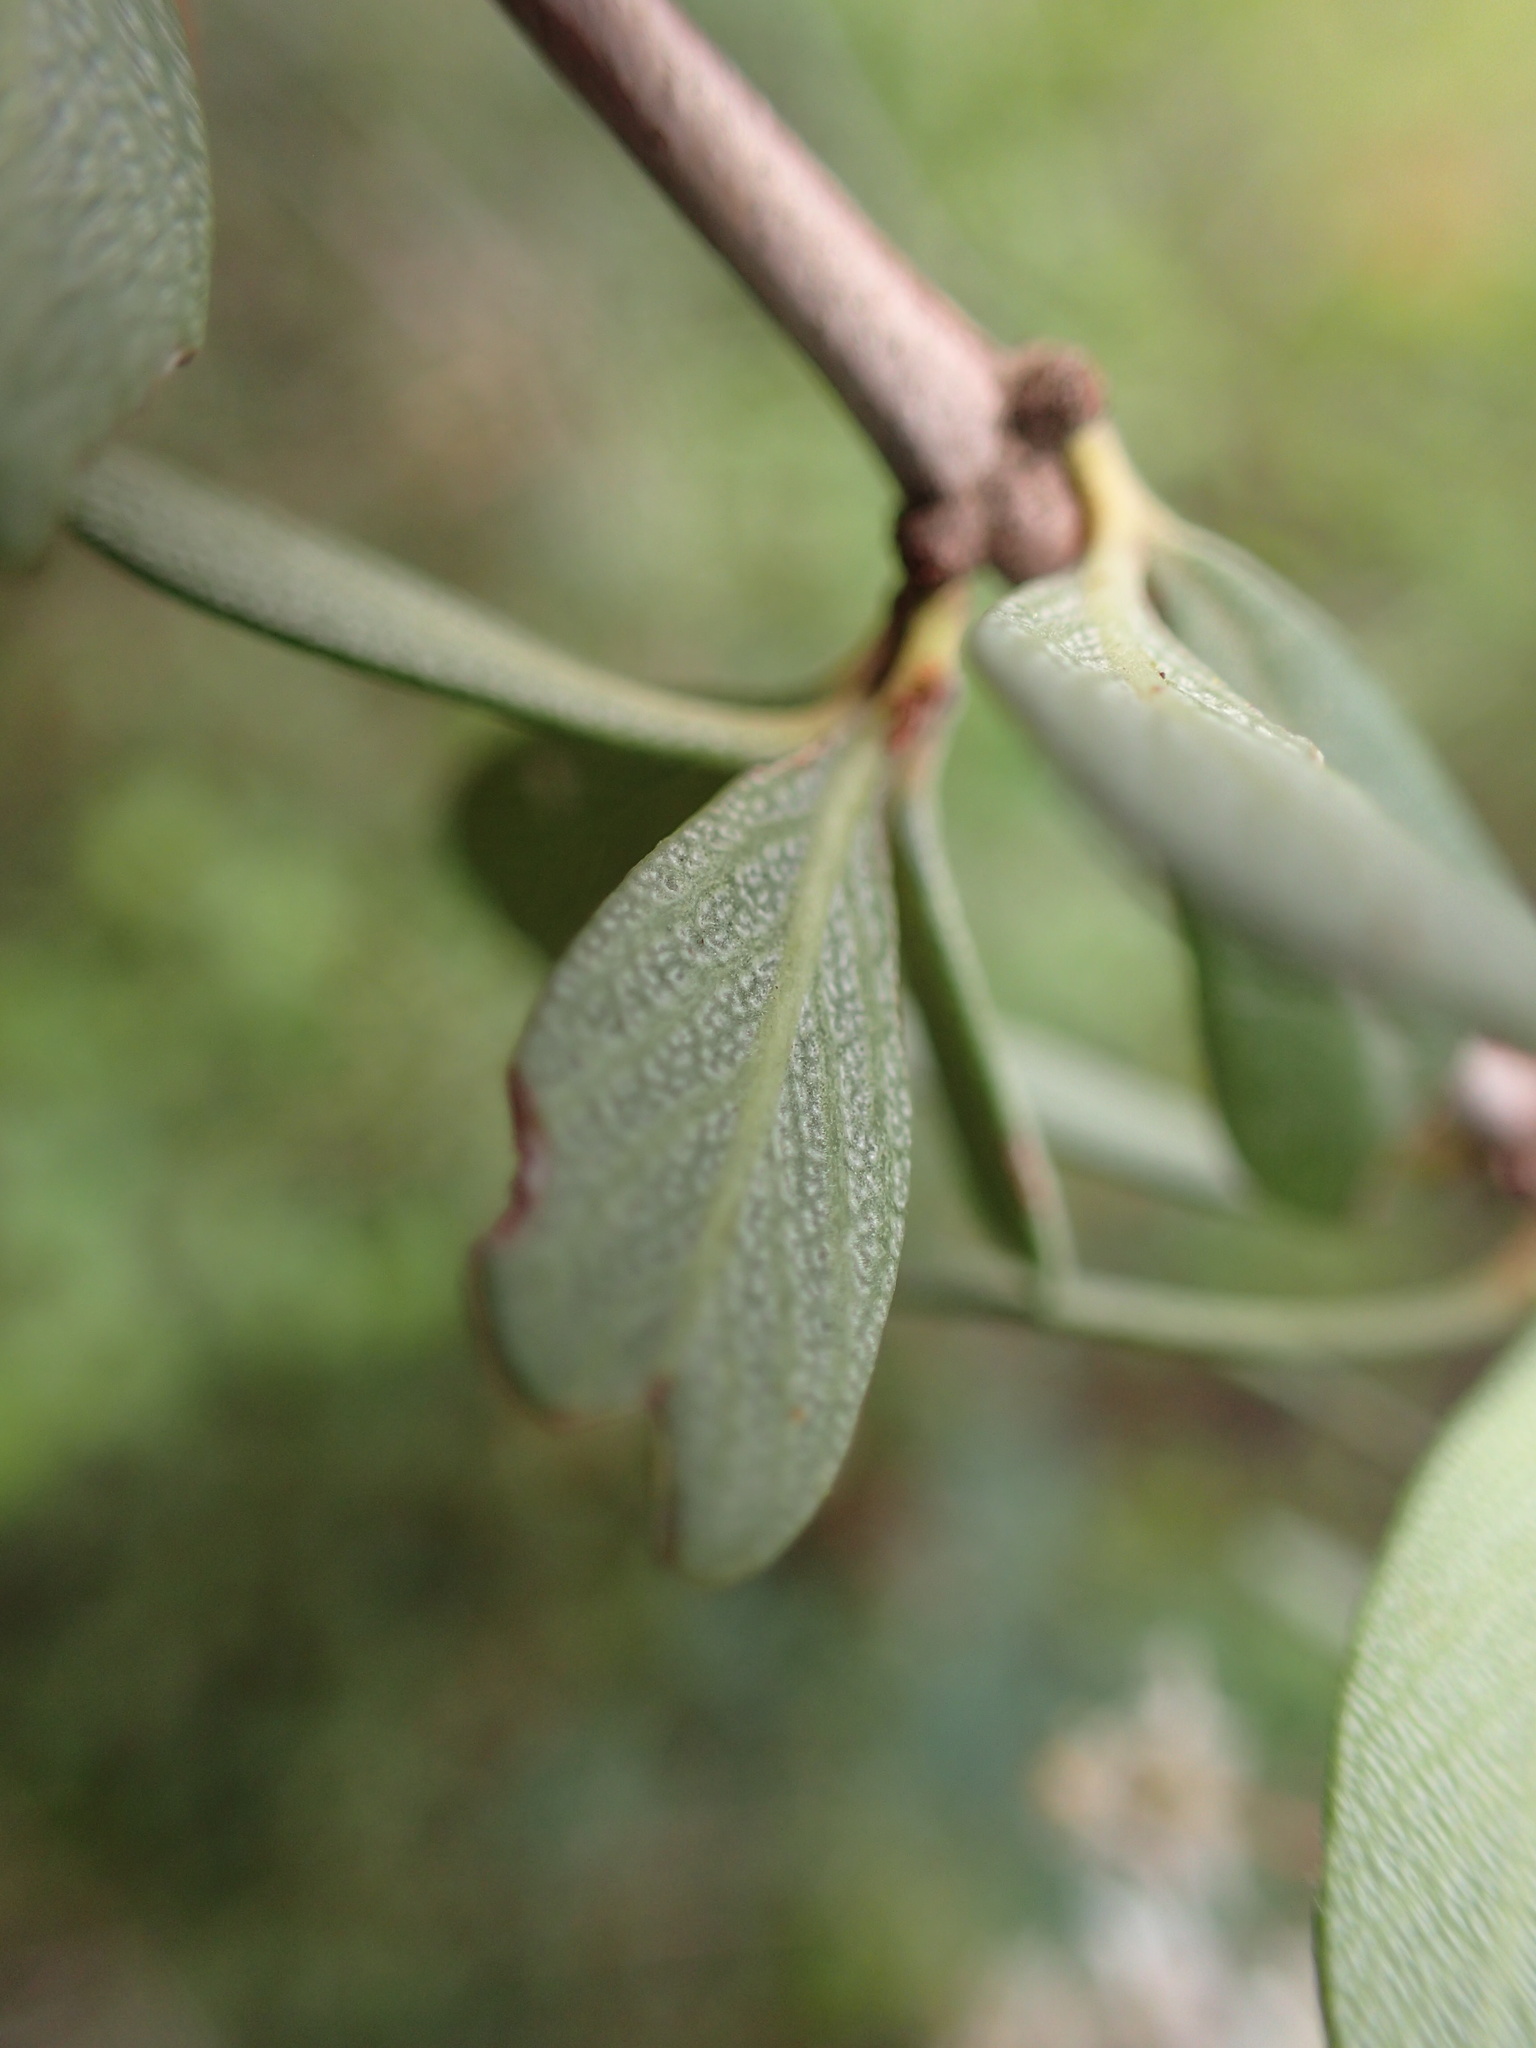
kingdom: Plantae
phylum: Tracheophyta
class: Magnoliopsida
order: Rosales
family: Rhamnaceae
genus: Ceanothus
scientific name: Ceanothus cuneatus
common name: Cuneate ceanothus
